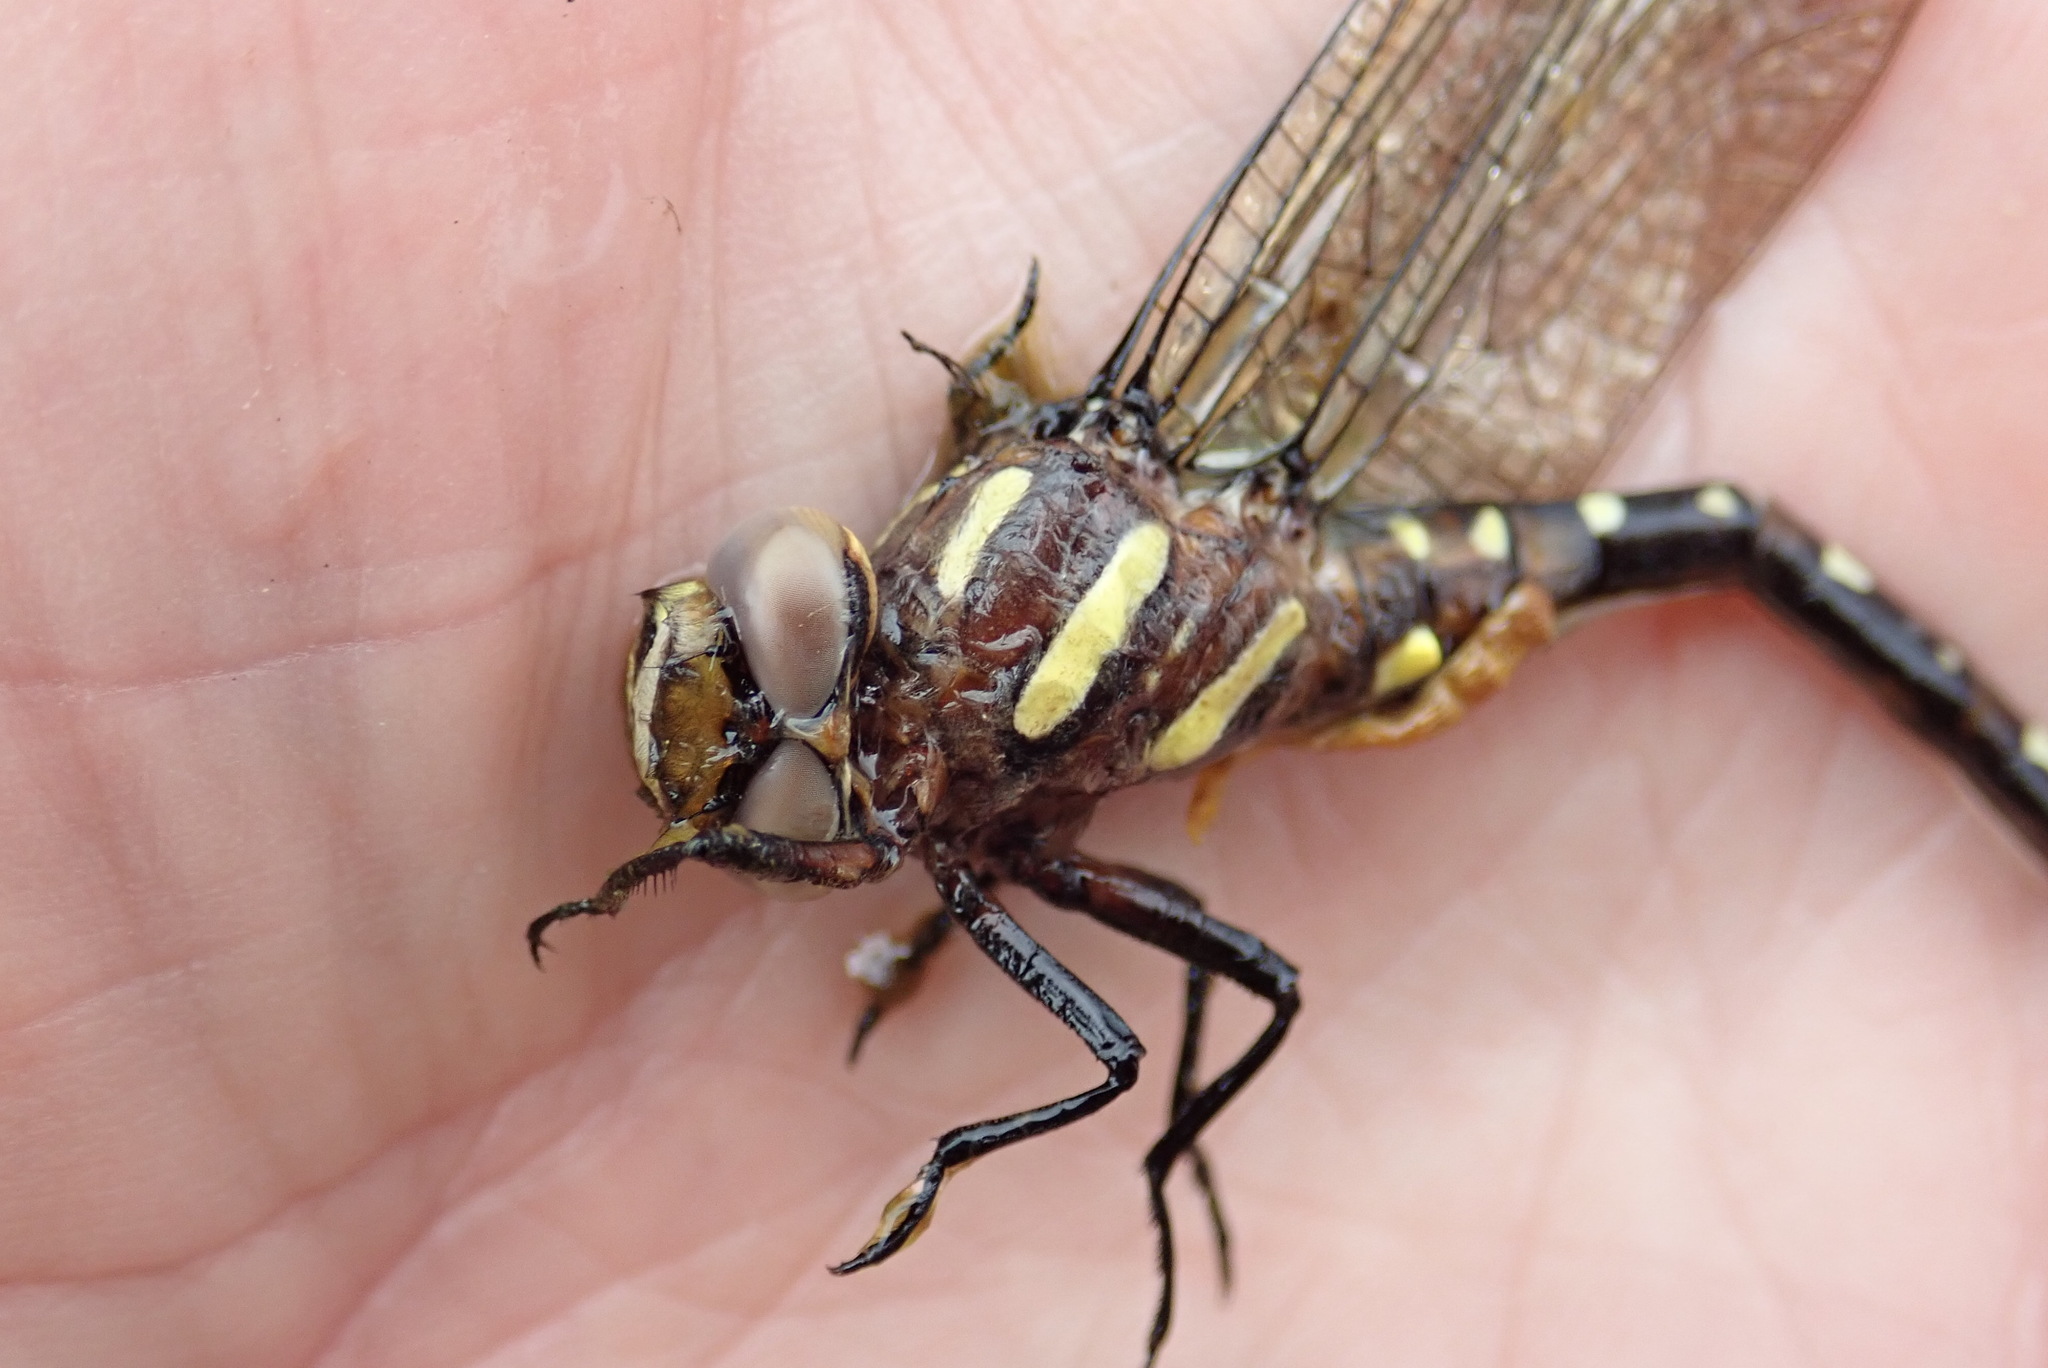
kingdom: Animalia
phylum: Arthropoda
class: Insecta
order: Odonata
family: Cordulegastridae
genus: Cordulegaster
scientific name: Cordulegaster maculata
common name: Twin-spotted spiketail
